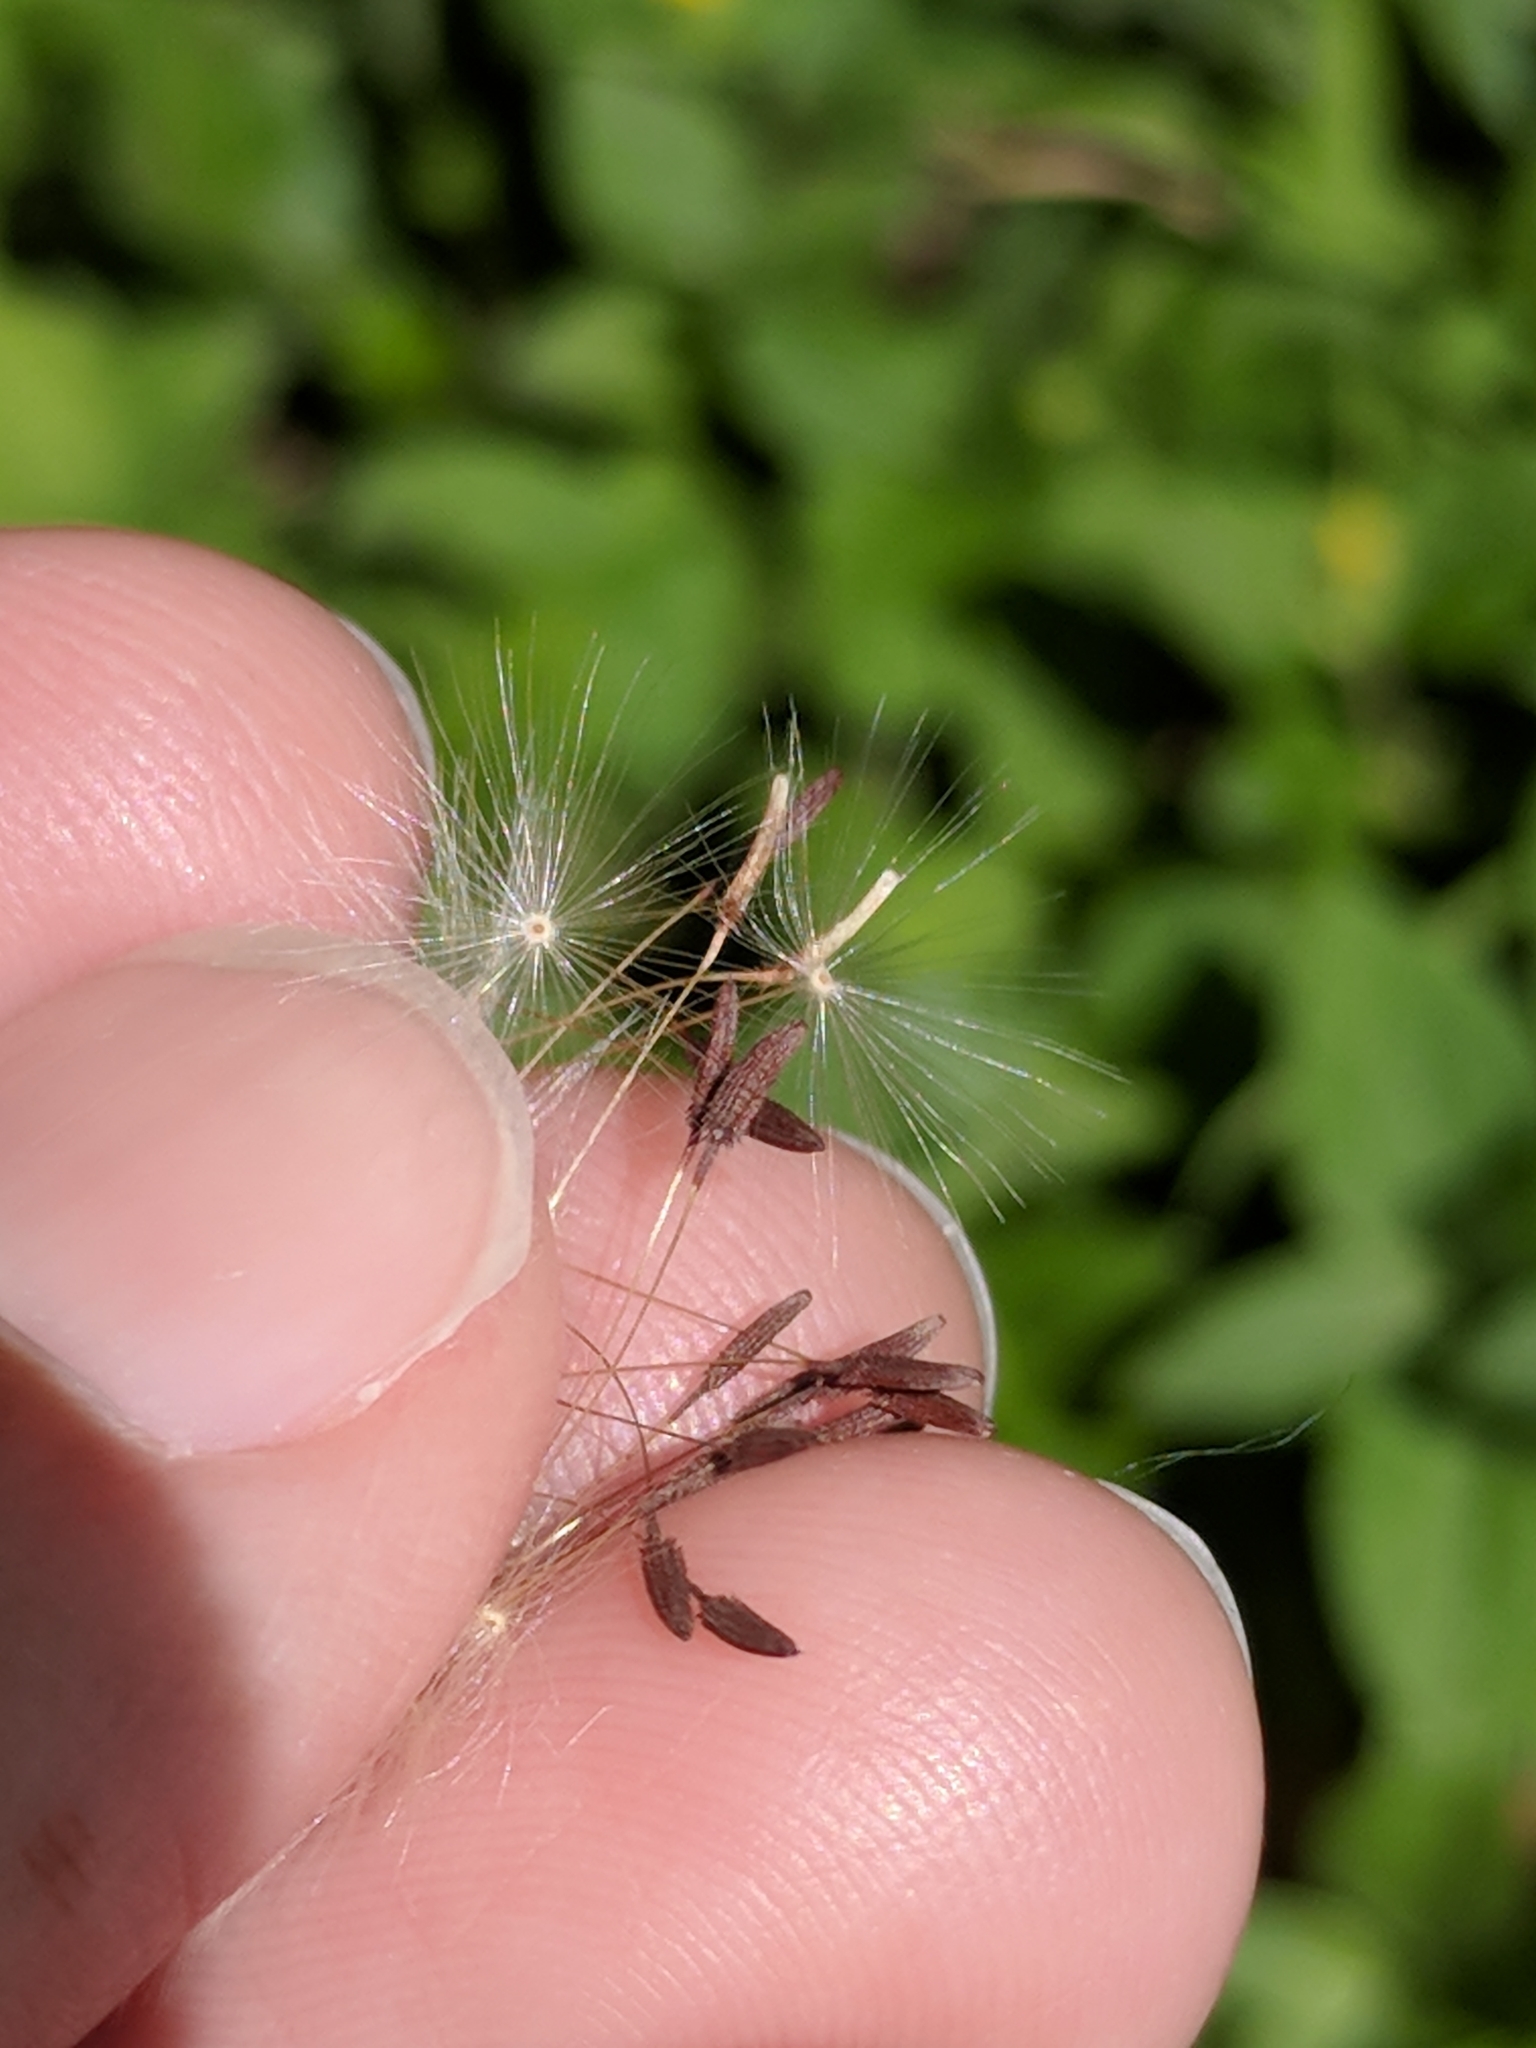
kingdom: Plantae
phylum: Tracheophyta
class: Magnoliopsida
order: Asterales
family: Asteraceae
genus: Taraxacum
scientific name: Taraxacum officinale
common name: Common dandelion
